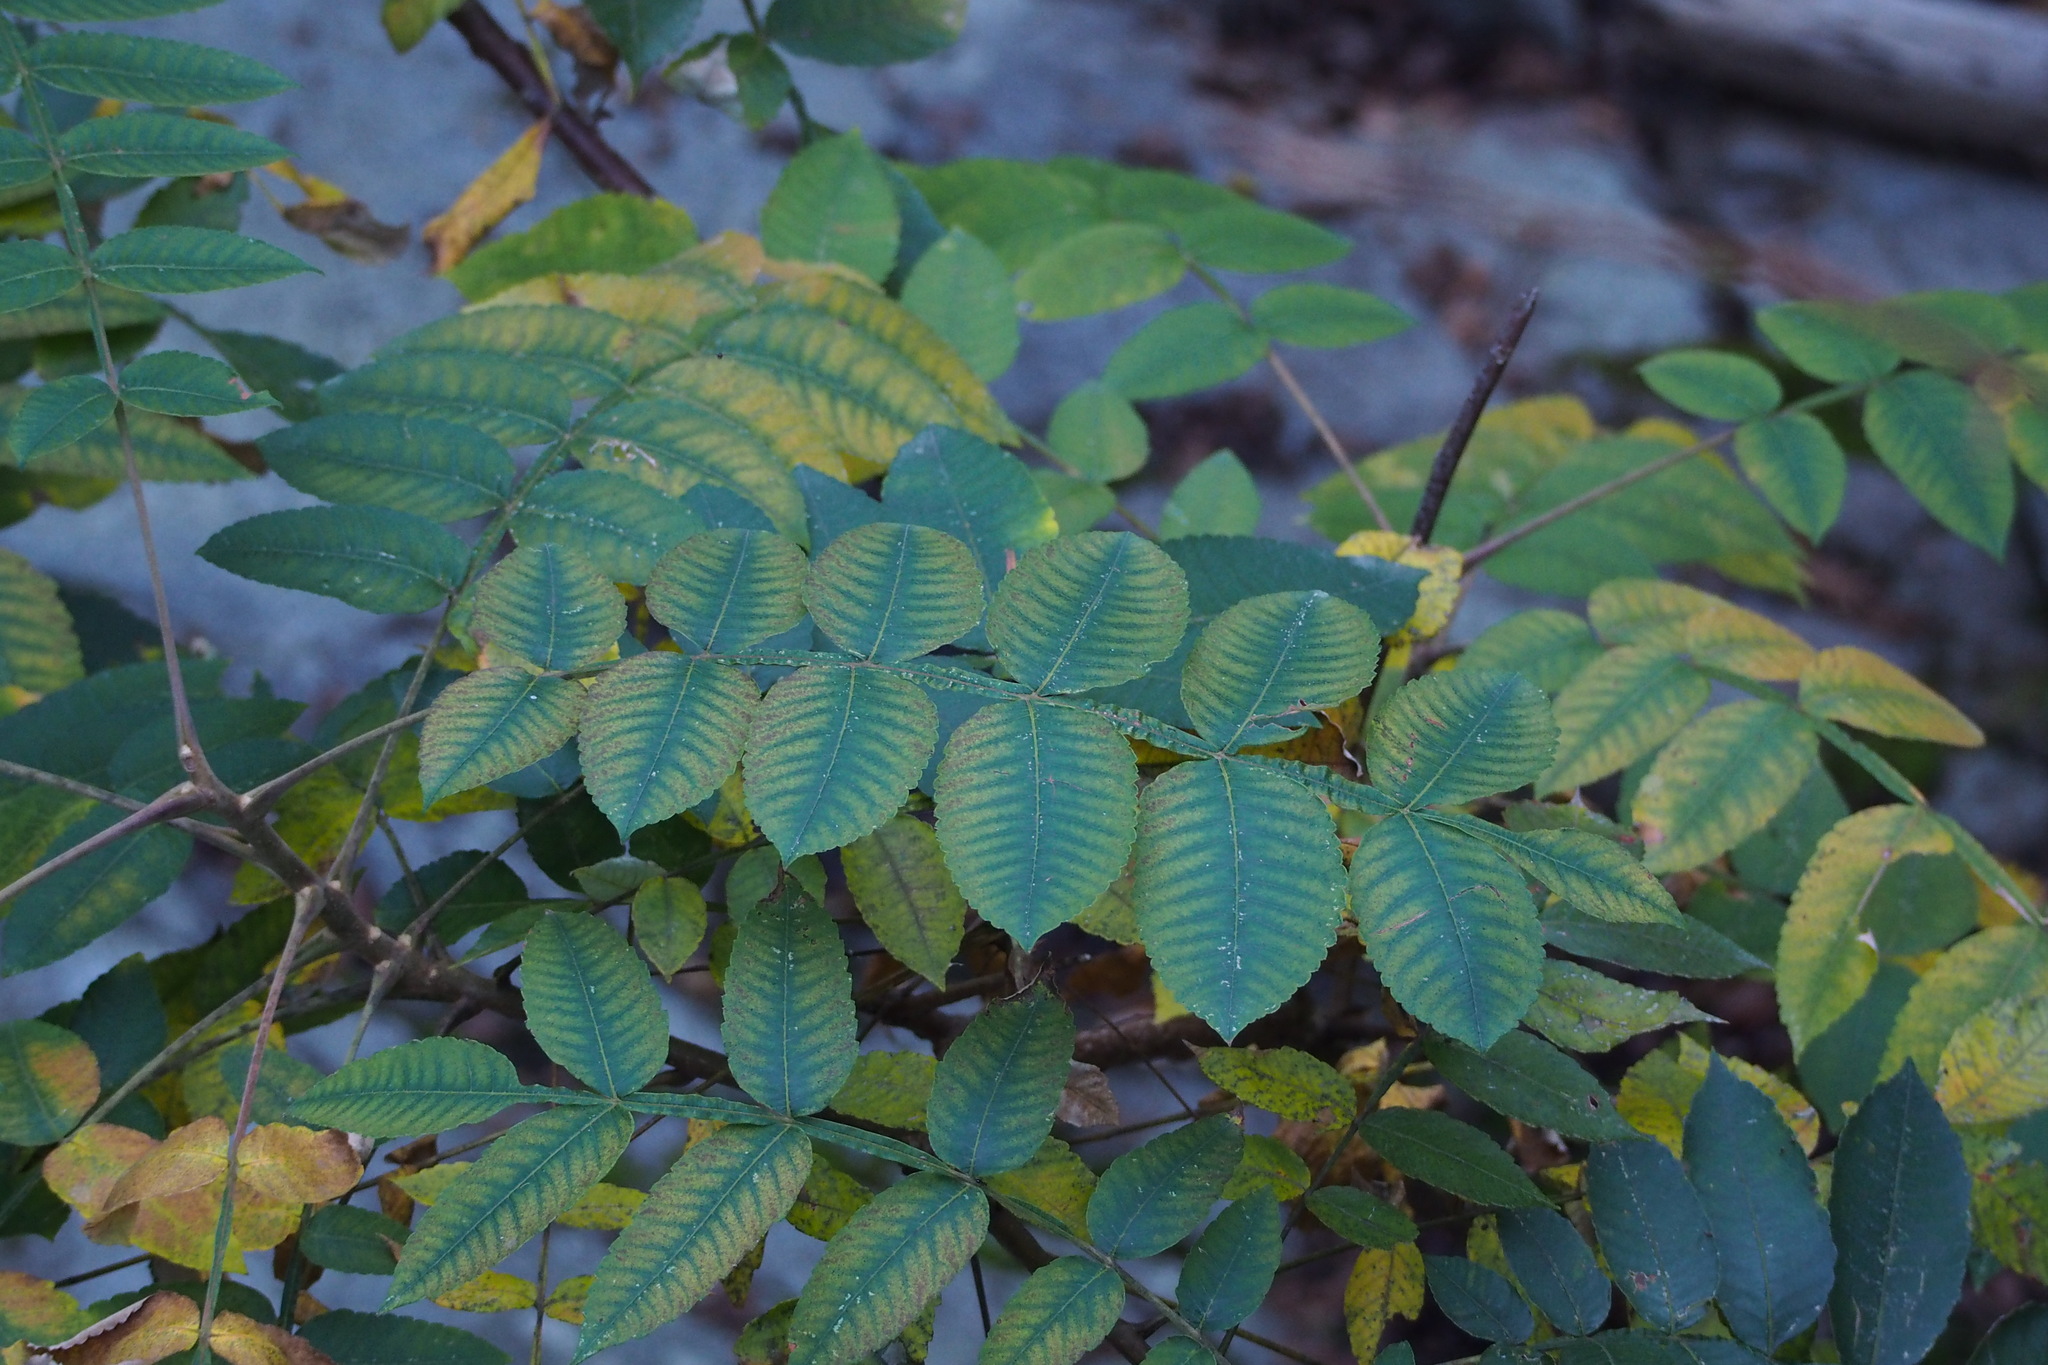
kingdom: Plantae
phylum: Tracheophyta
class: Magnoliopsida
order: Sapindales
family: Anacardiaceae
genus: Rhus
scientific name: Rhus chinensis
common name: Chinese gall
